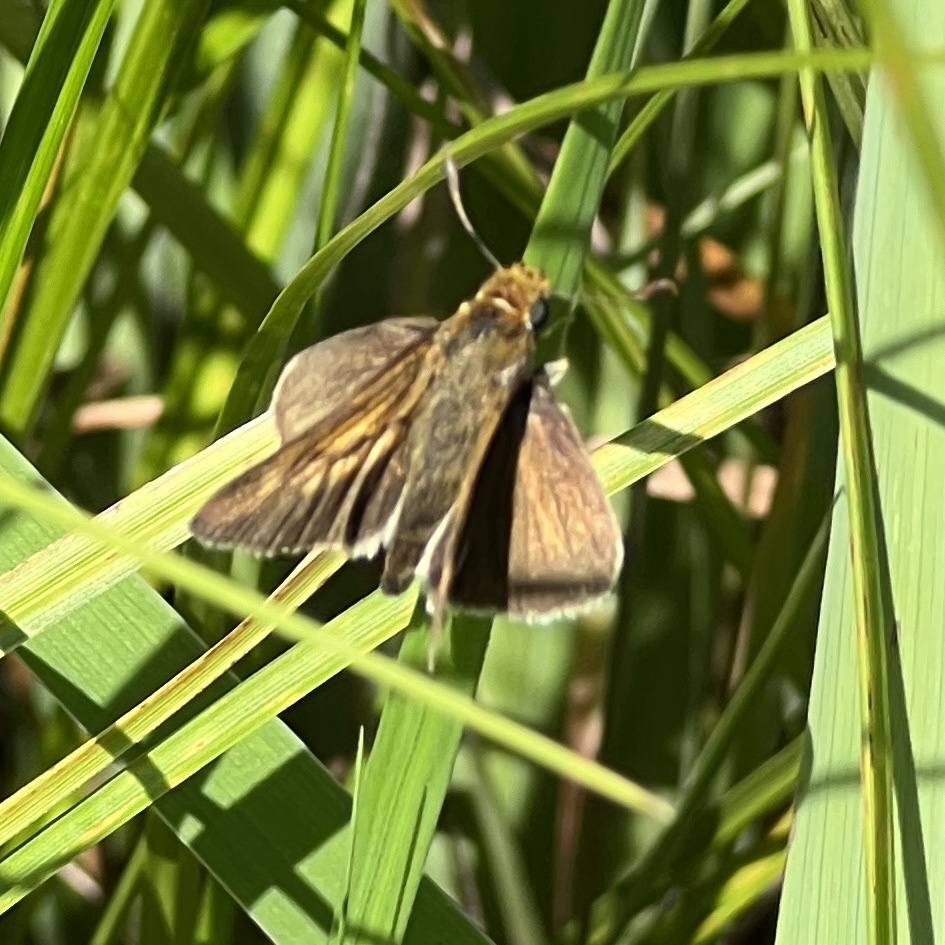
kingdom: Animalia
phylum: Arthropoda
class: Insecta
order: Lepidoptera
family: Hesperiidae
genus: Euphyes
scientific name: Euphyes bimacula
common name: Two-spotted skipper
